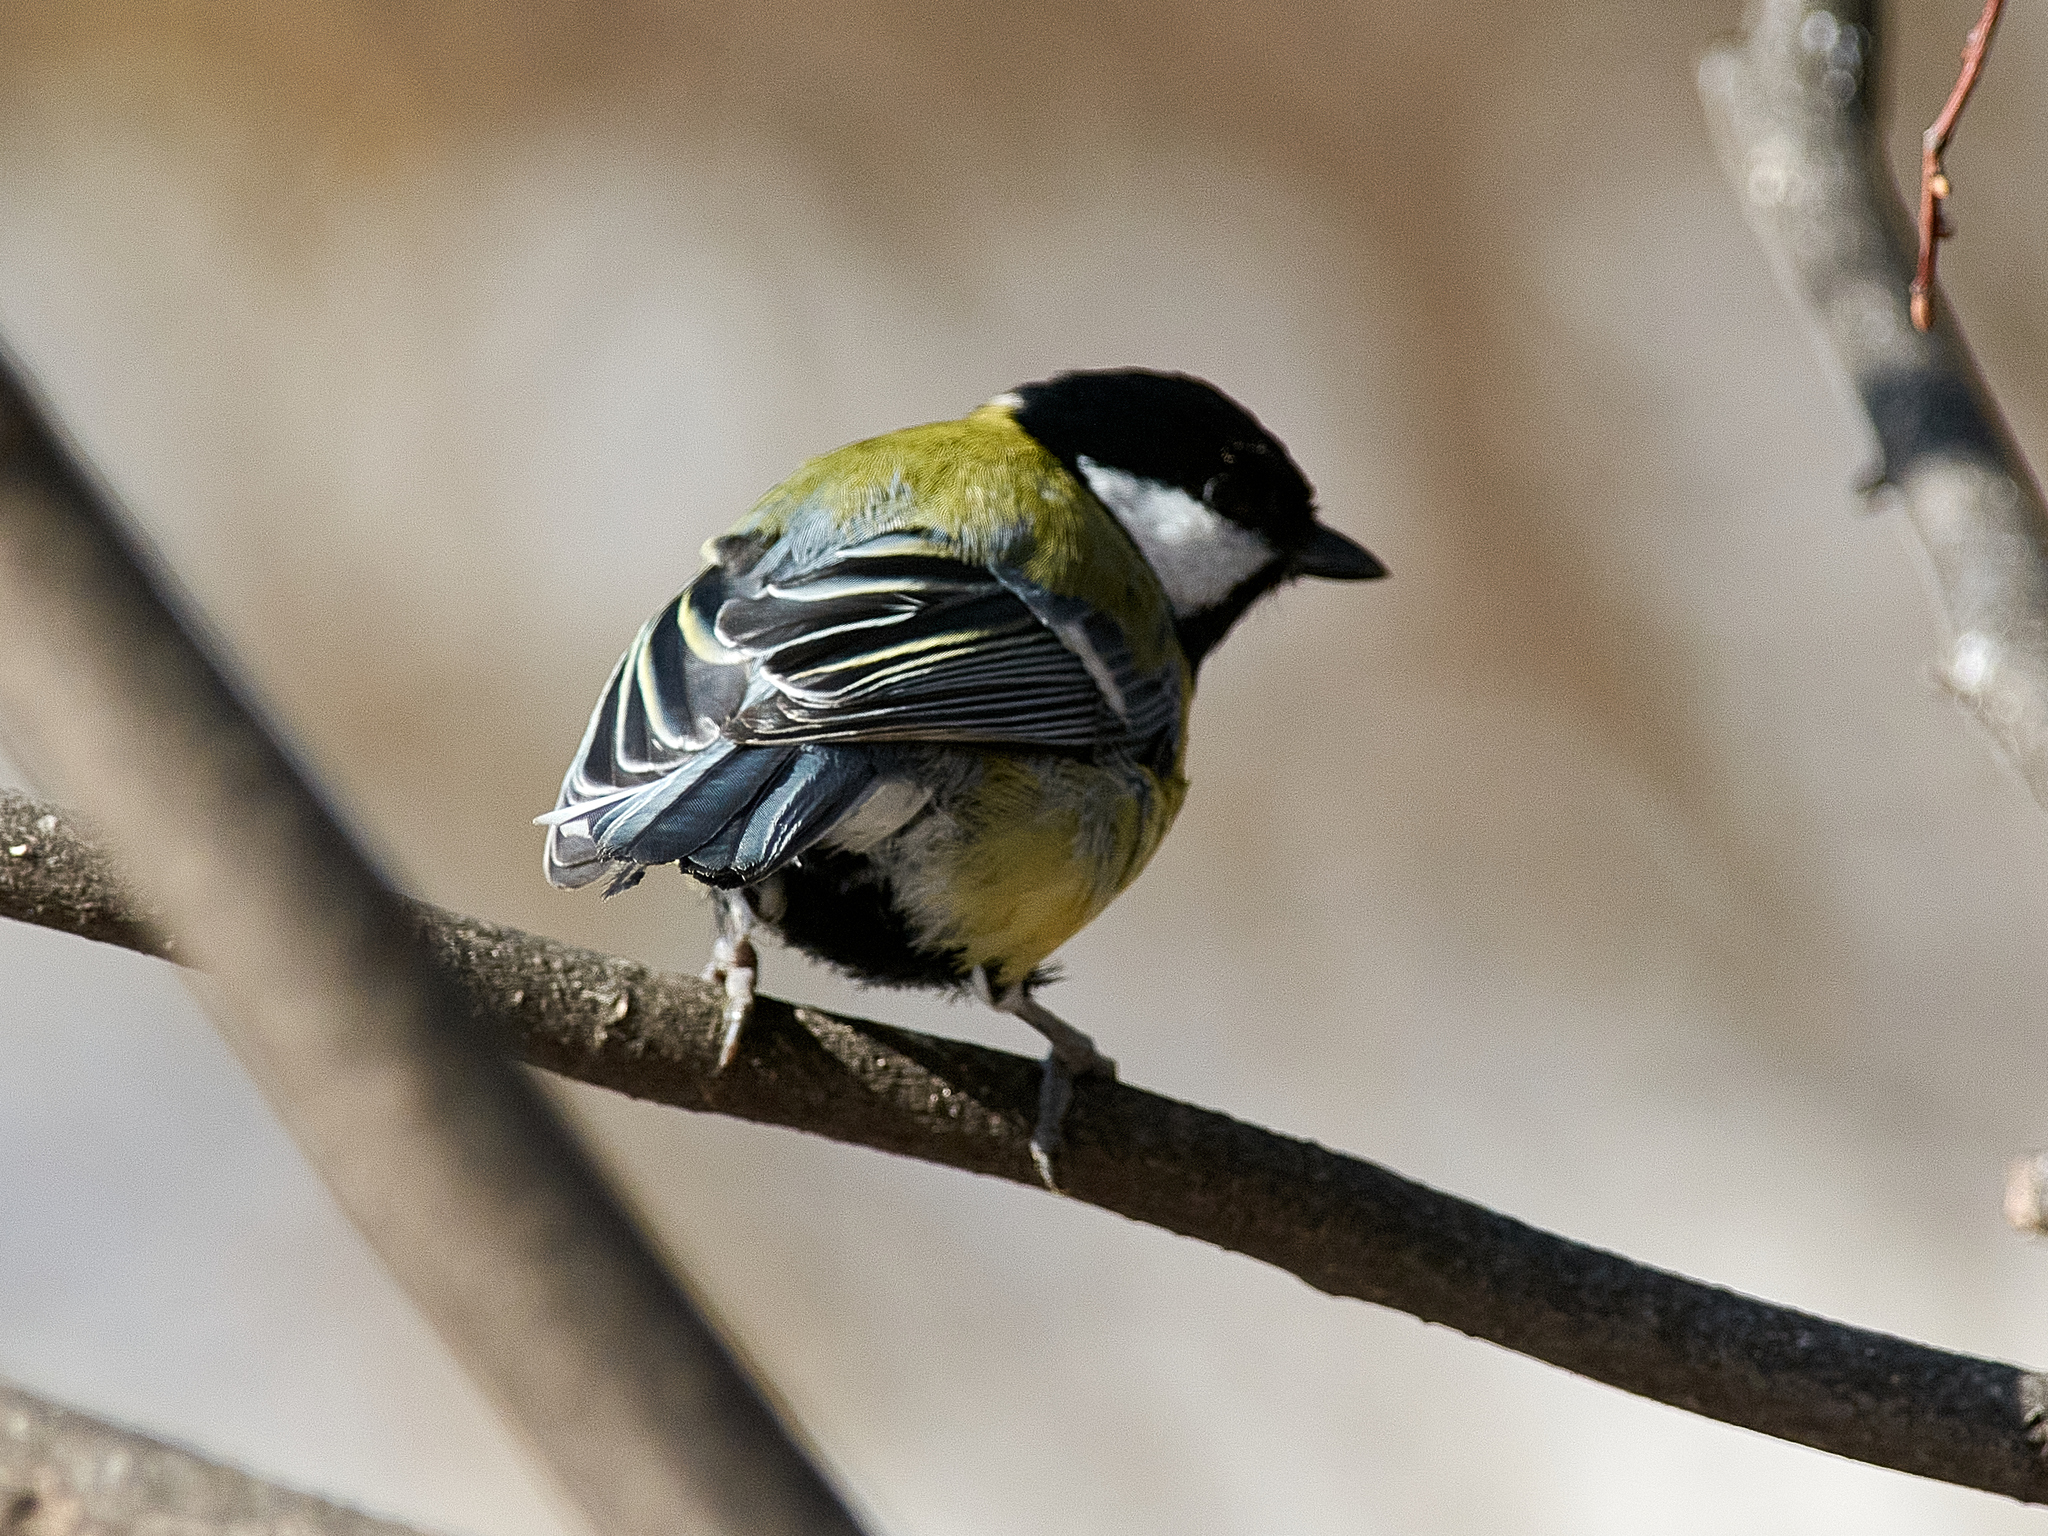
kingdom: Animalia
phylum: Chordata
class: Aves
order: Passeriformes
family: Paridae
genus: Parus
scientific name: Parus major
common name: Great tit
